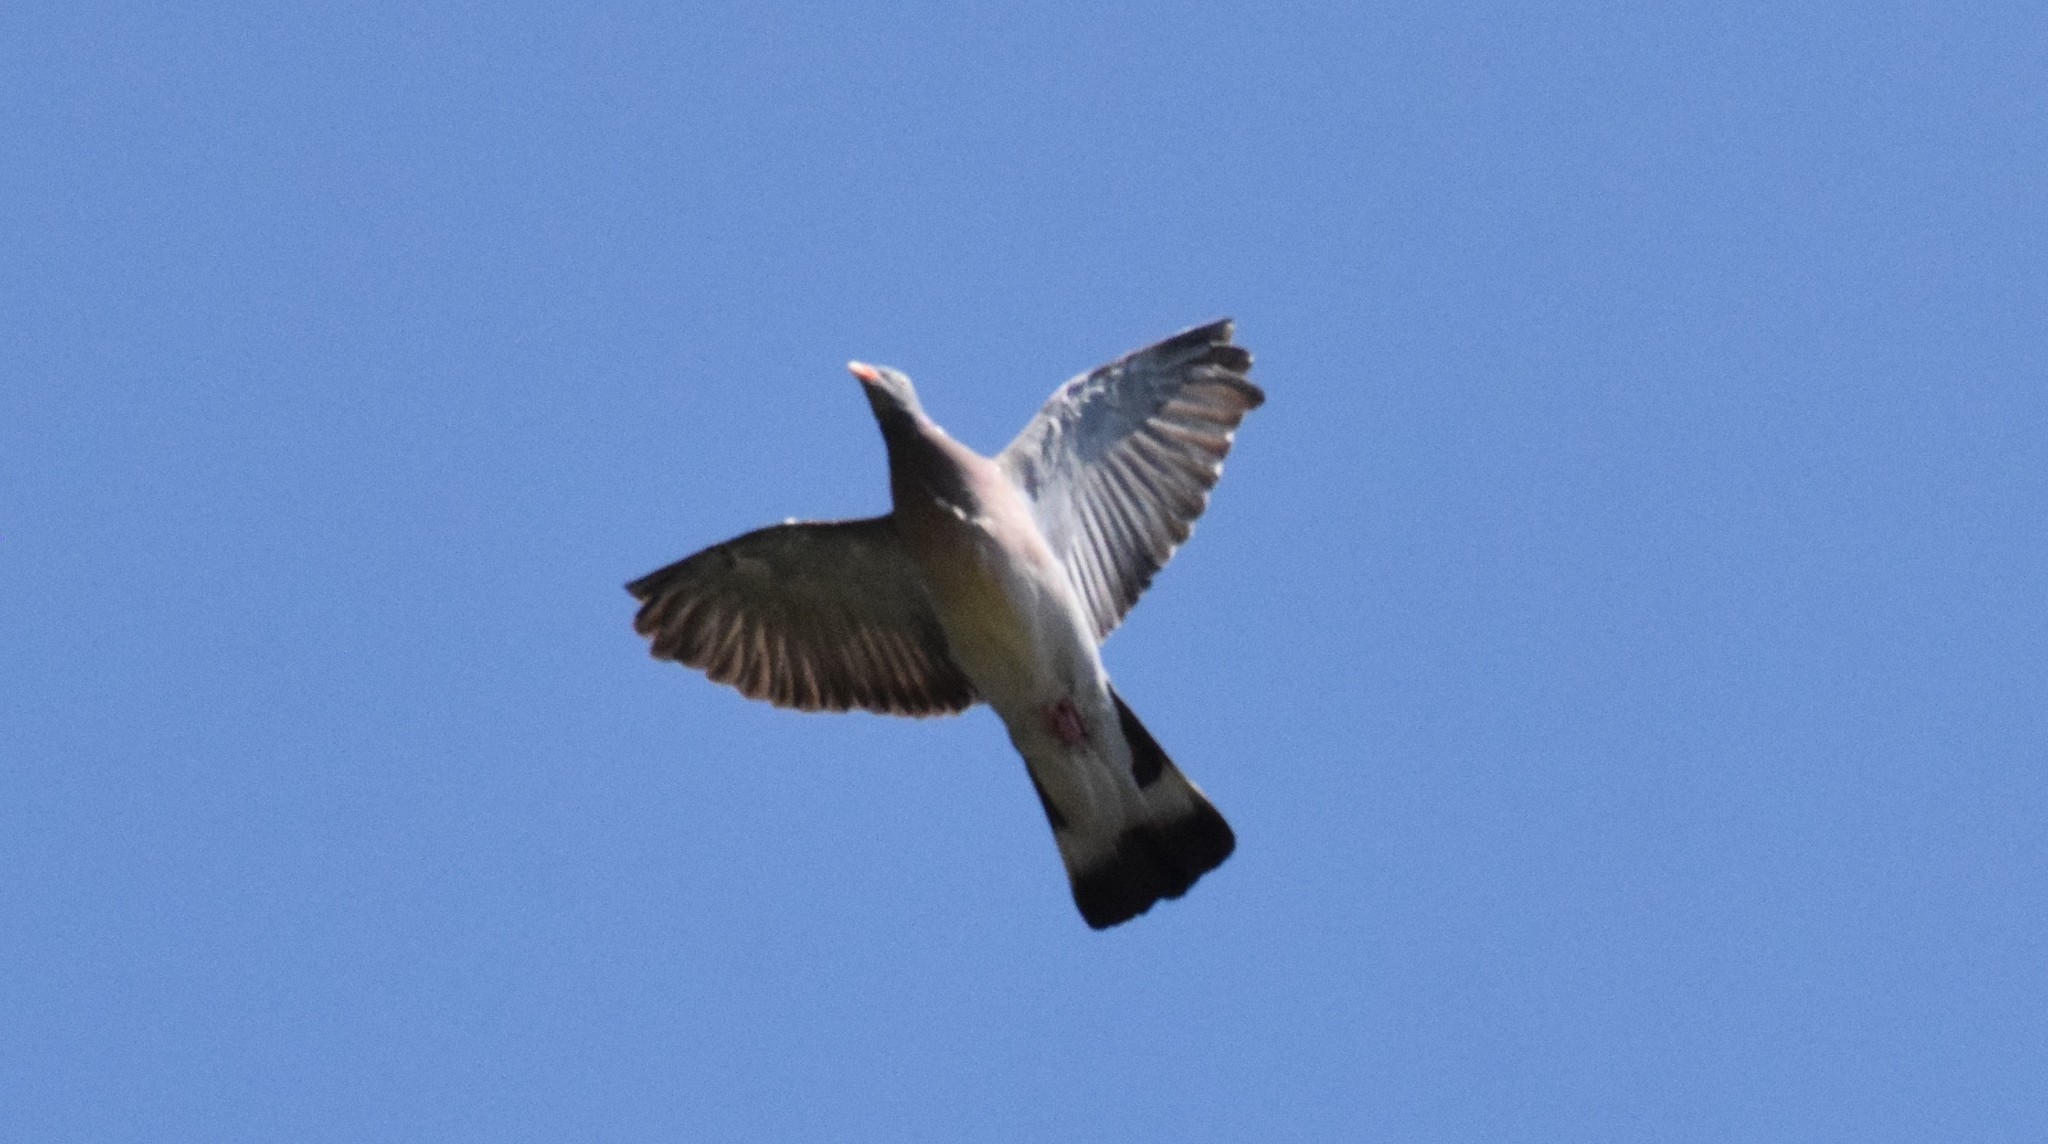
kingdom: Animalia
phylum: Chordata
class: Aves
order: Columbiformes
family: Columbidae
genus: Columba
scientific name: Columba palumbus
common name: Common wood pigeon
